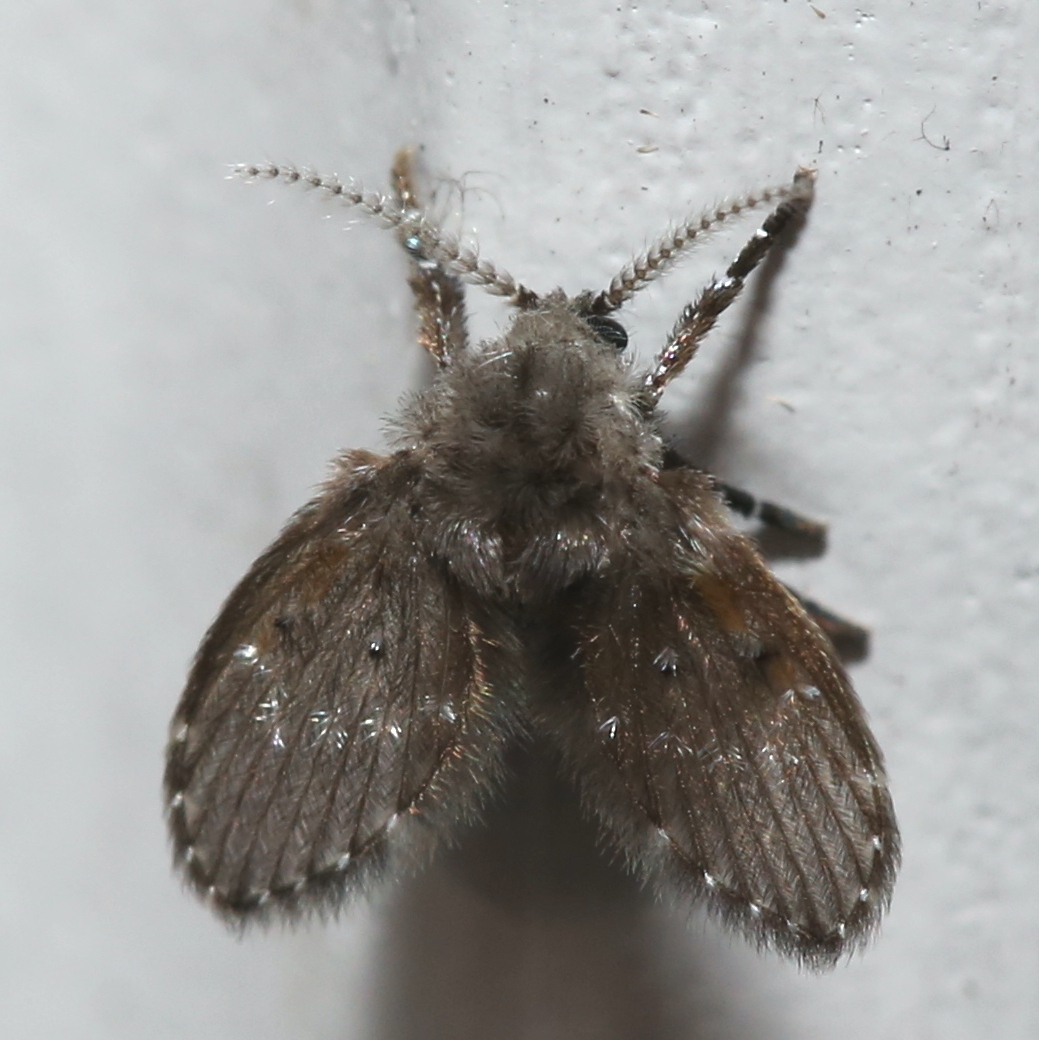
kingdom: Animalia
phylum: Arthropoda
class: Insecta
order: Diptera
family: Psychodidae
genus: Clogmia
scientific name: Clogmia albipunctatus
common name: White-spotted moth fly
